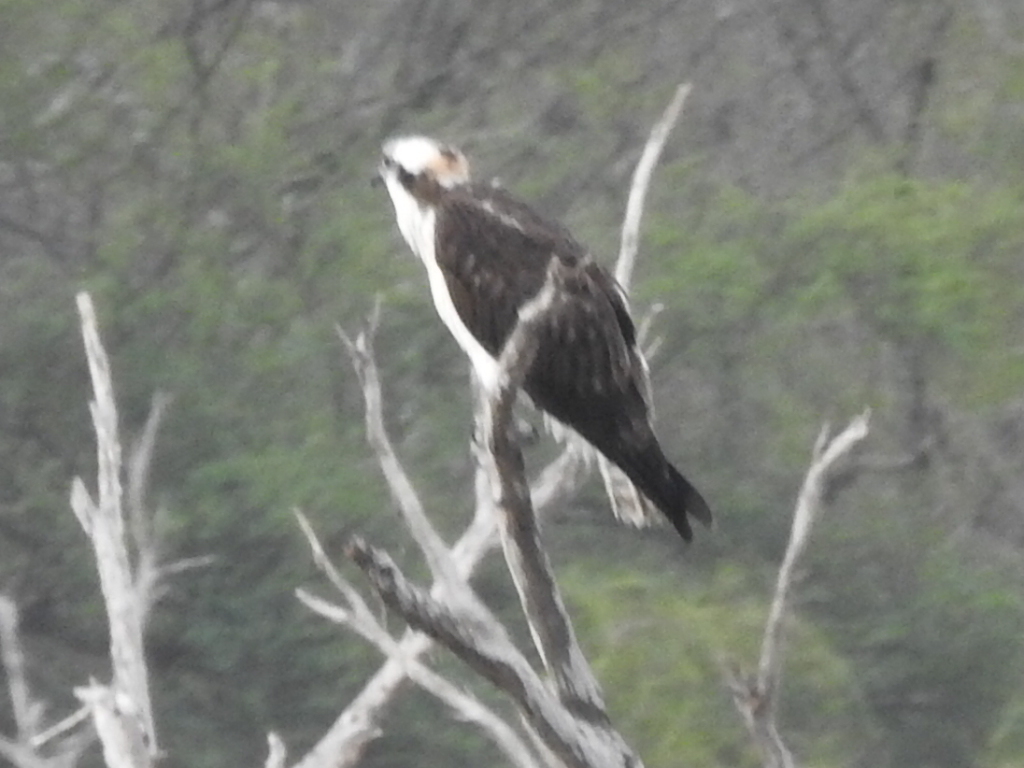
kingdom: Animalia
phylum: Chordata
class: Aves
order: Accipitriformes
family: Pandionidae
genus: Pandion
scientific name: Pandion haliaetus
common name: Osprey
